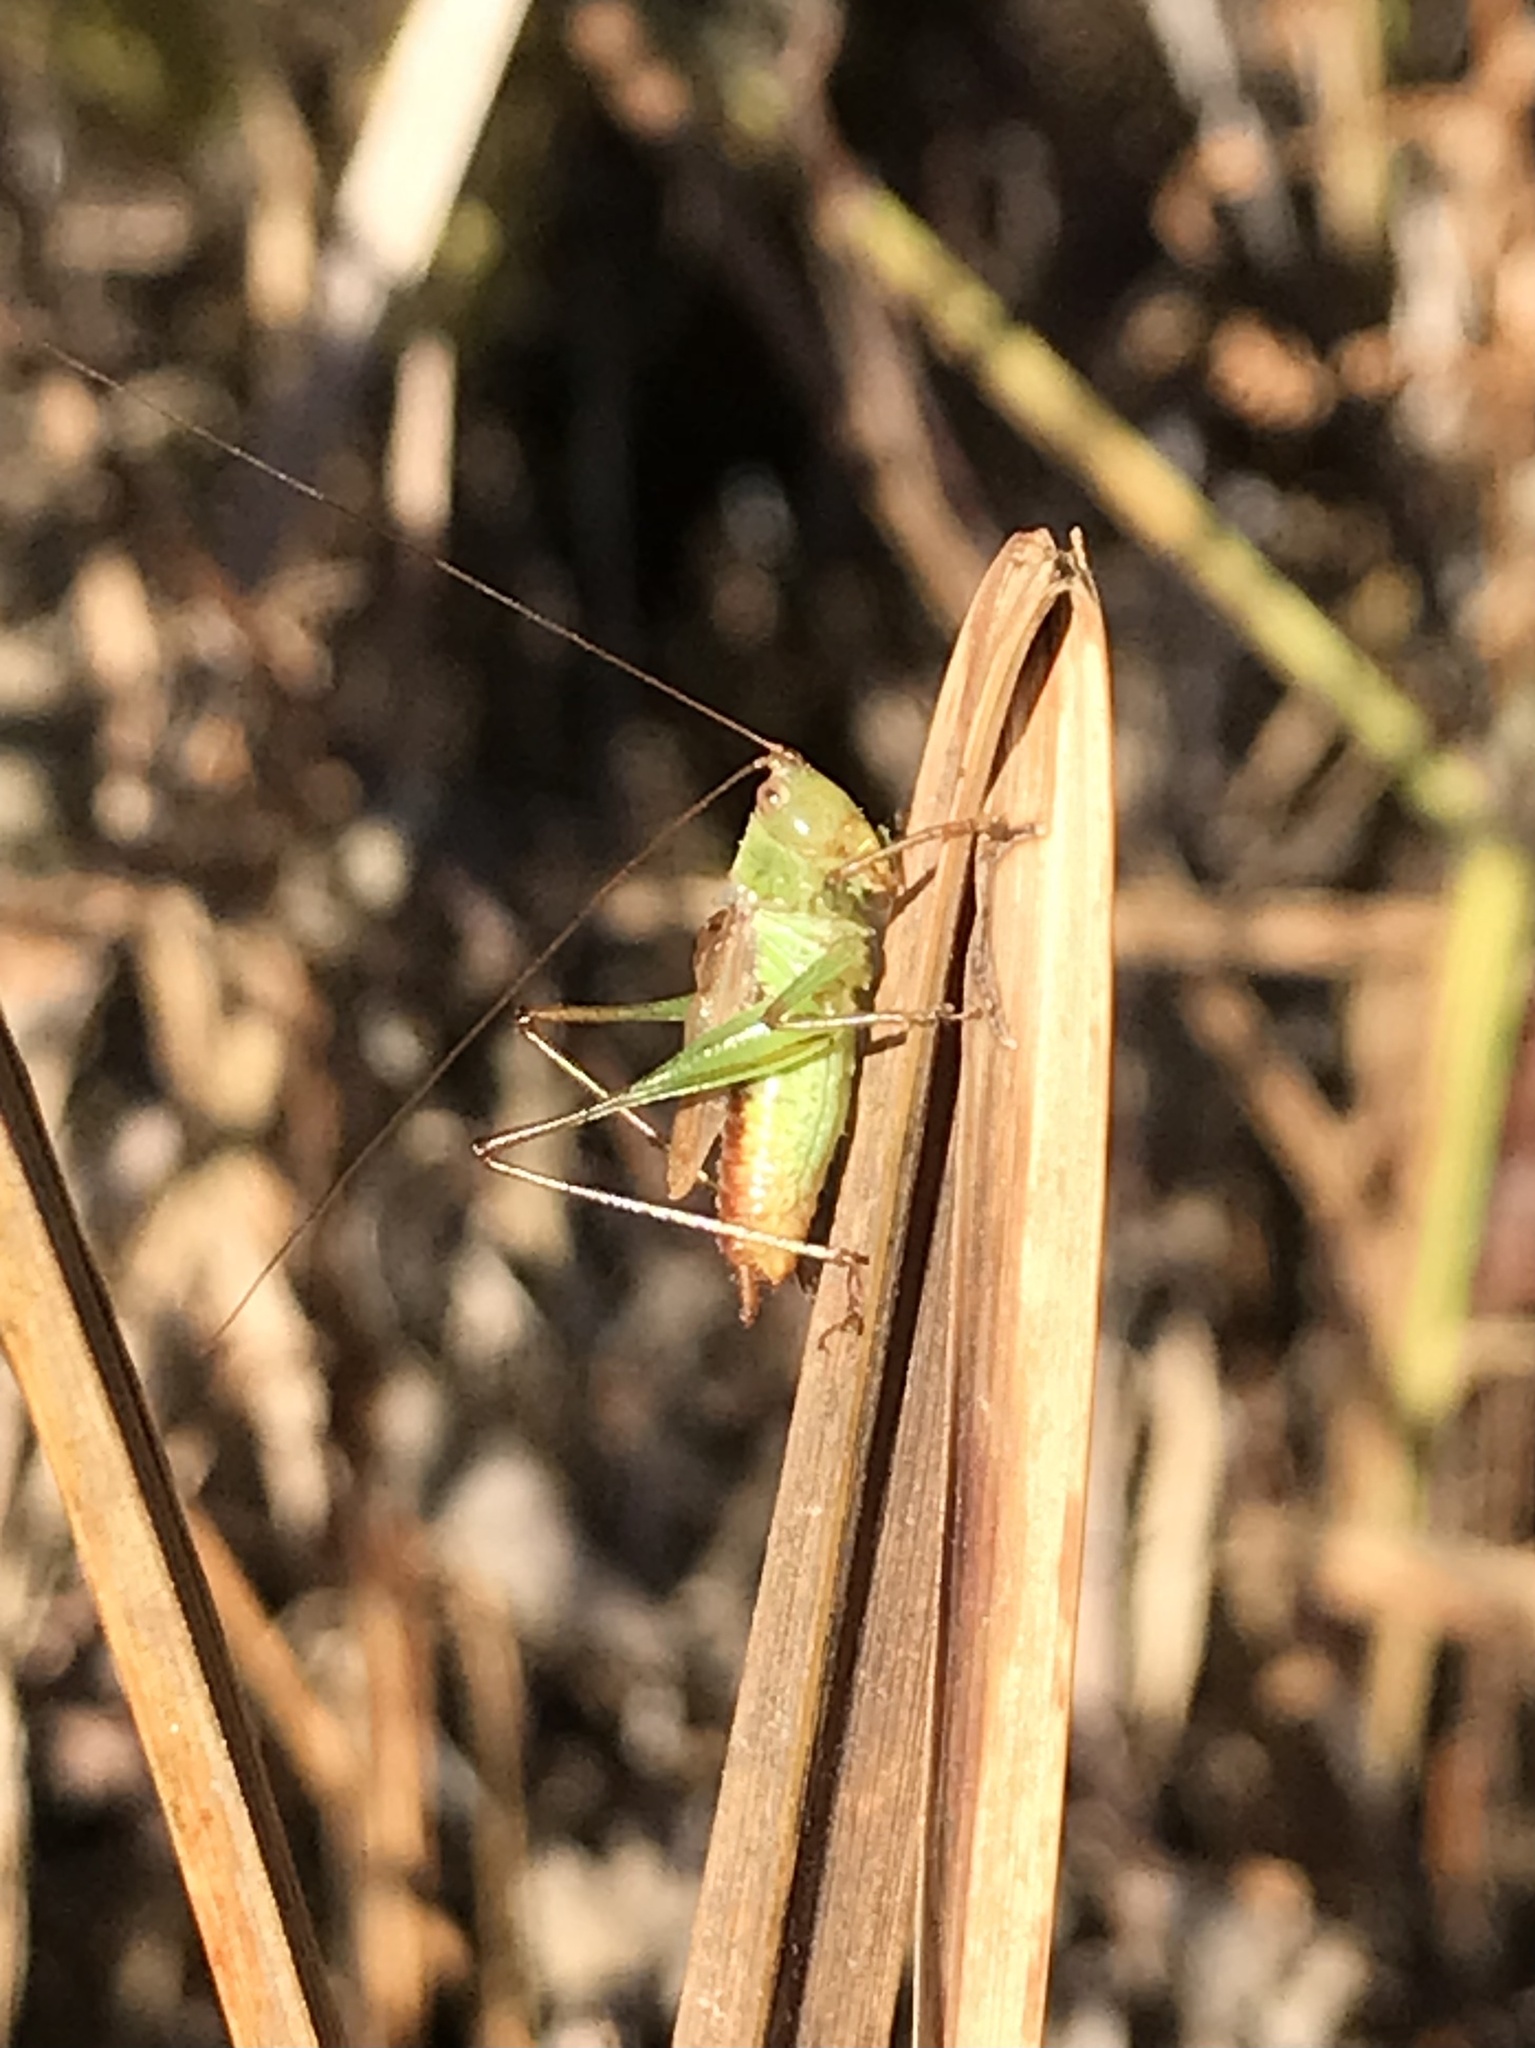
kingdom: Animalia
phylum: Arthropoda
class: Insecta
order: Orthoptera
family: Tettigoniidae
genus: Conocephalus
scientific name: Conocephalus brevipennis
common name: Short-winged meadow katydid
